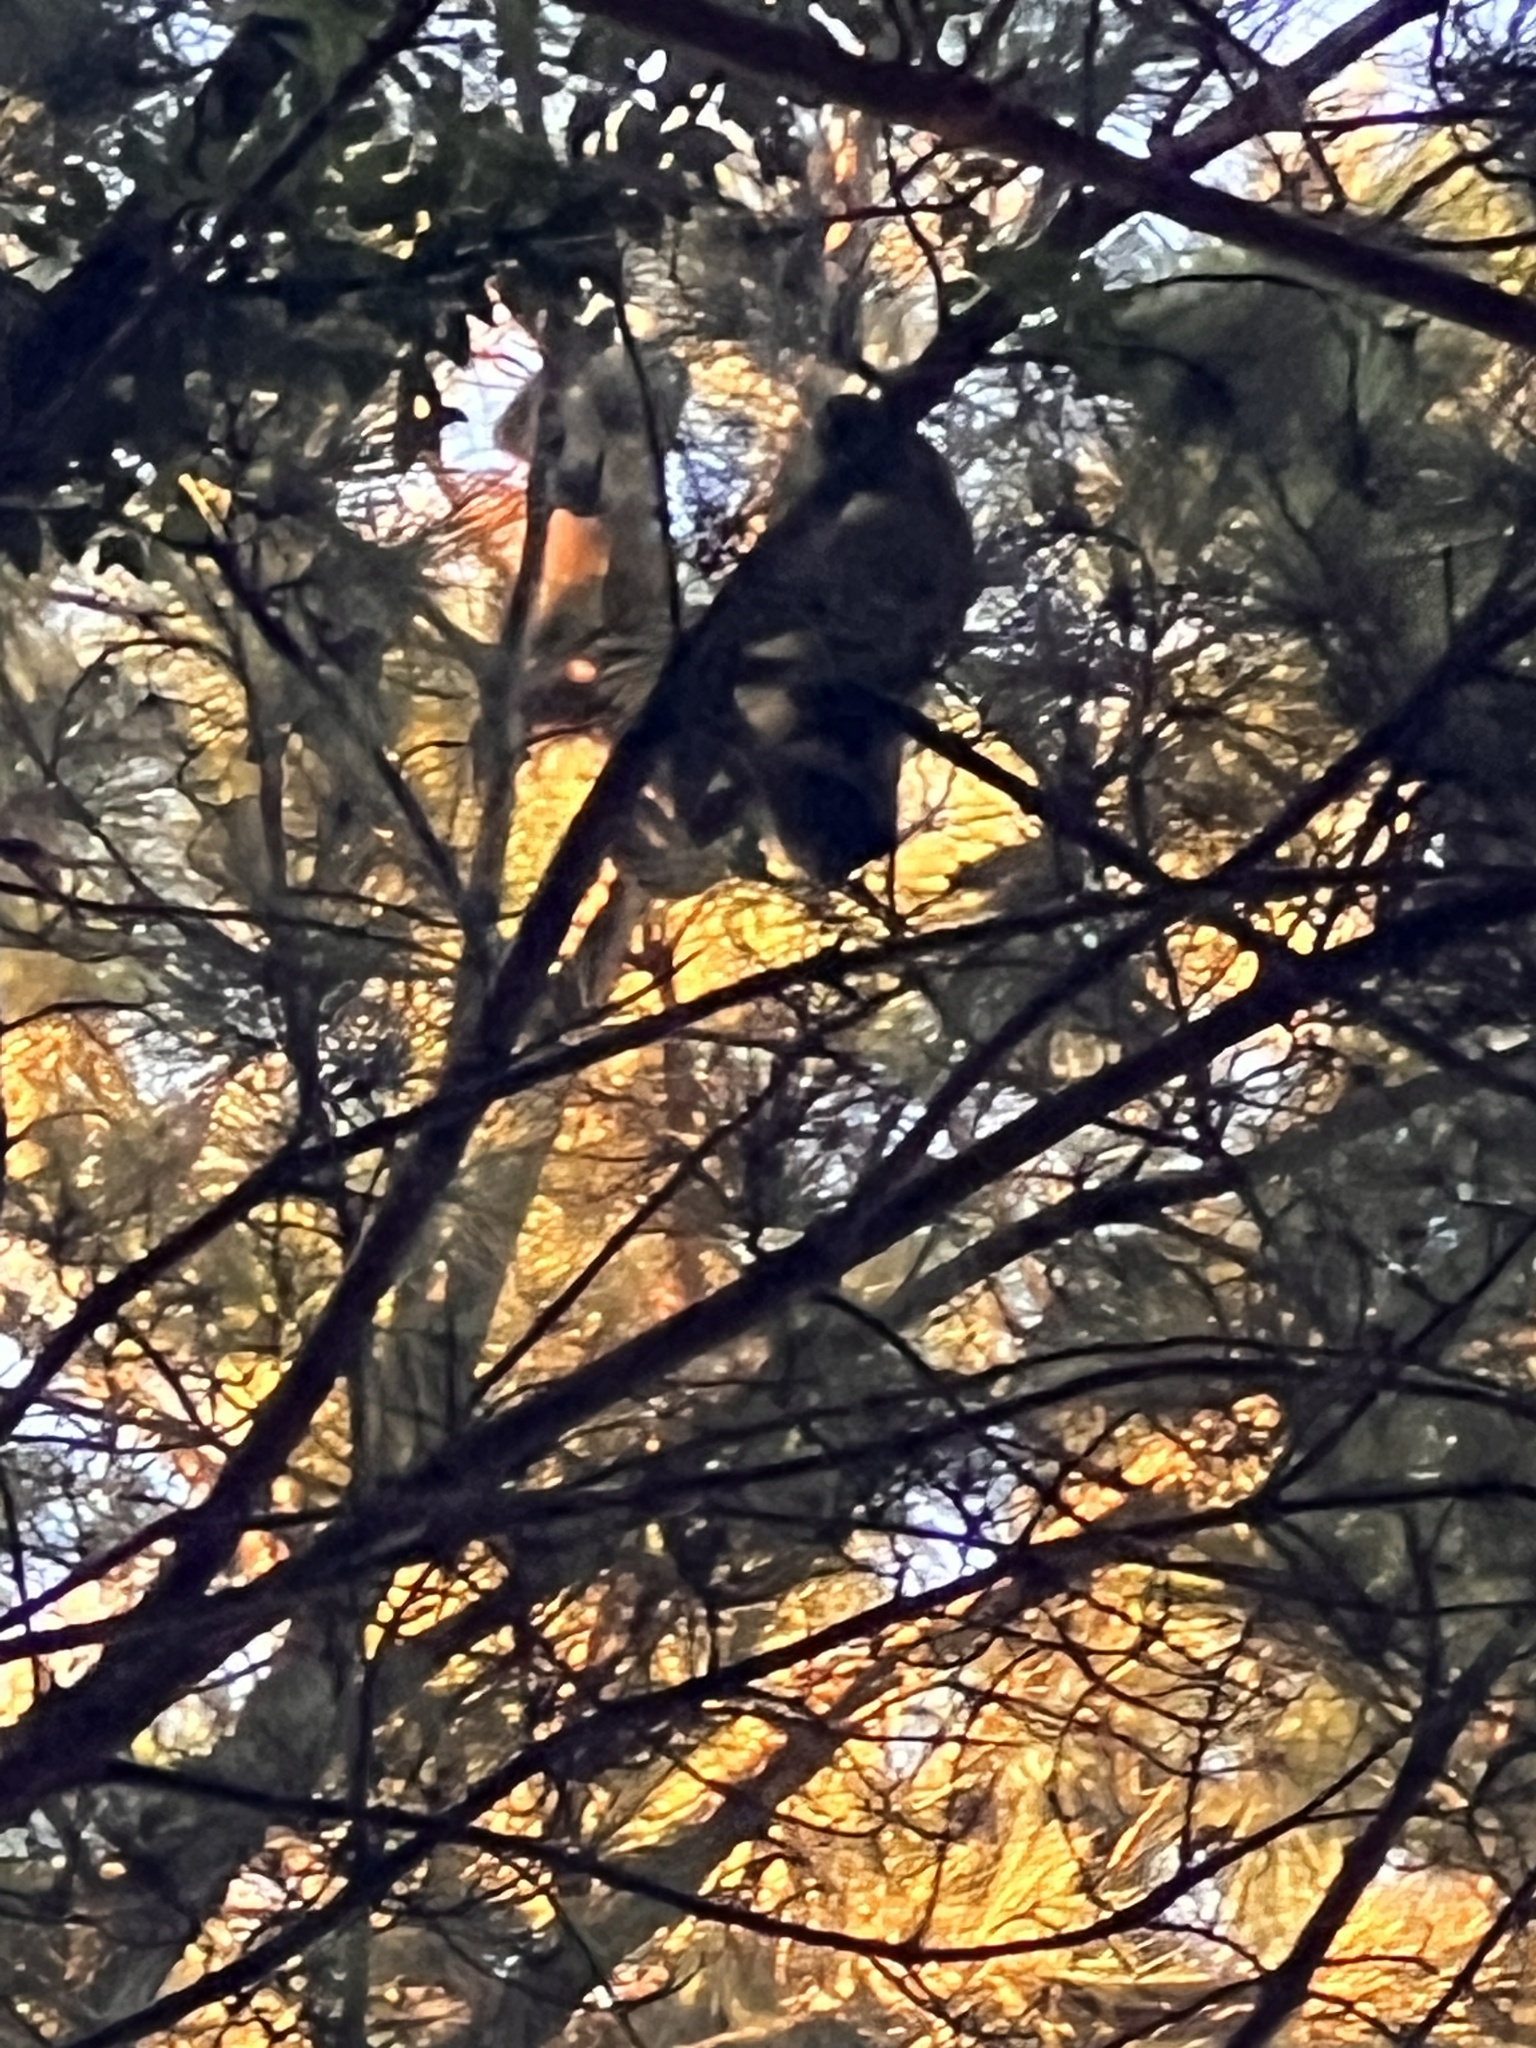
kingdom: Animalia
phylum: Chordata
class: Mammalia
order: Primates
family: Cebidae
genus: Sapajus
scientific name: Sapajus cay
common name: Hooded capuchin
